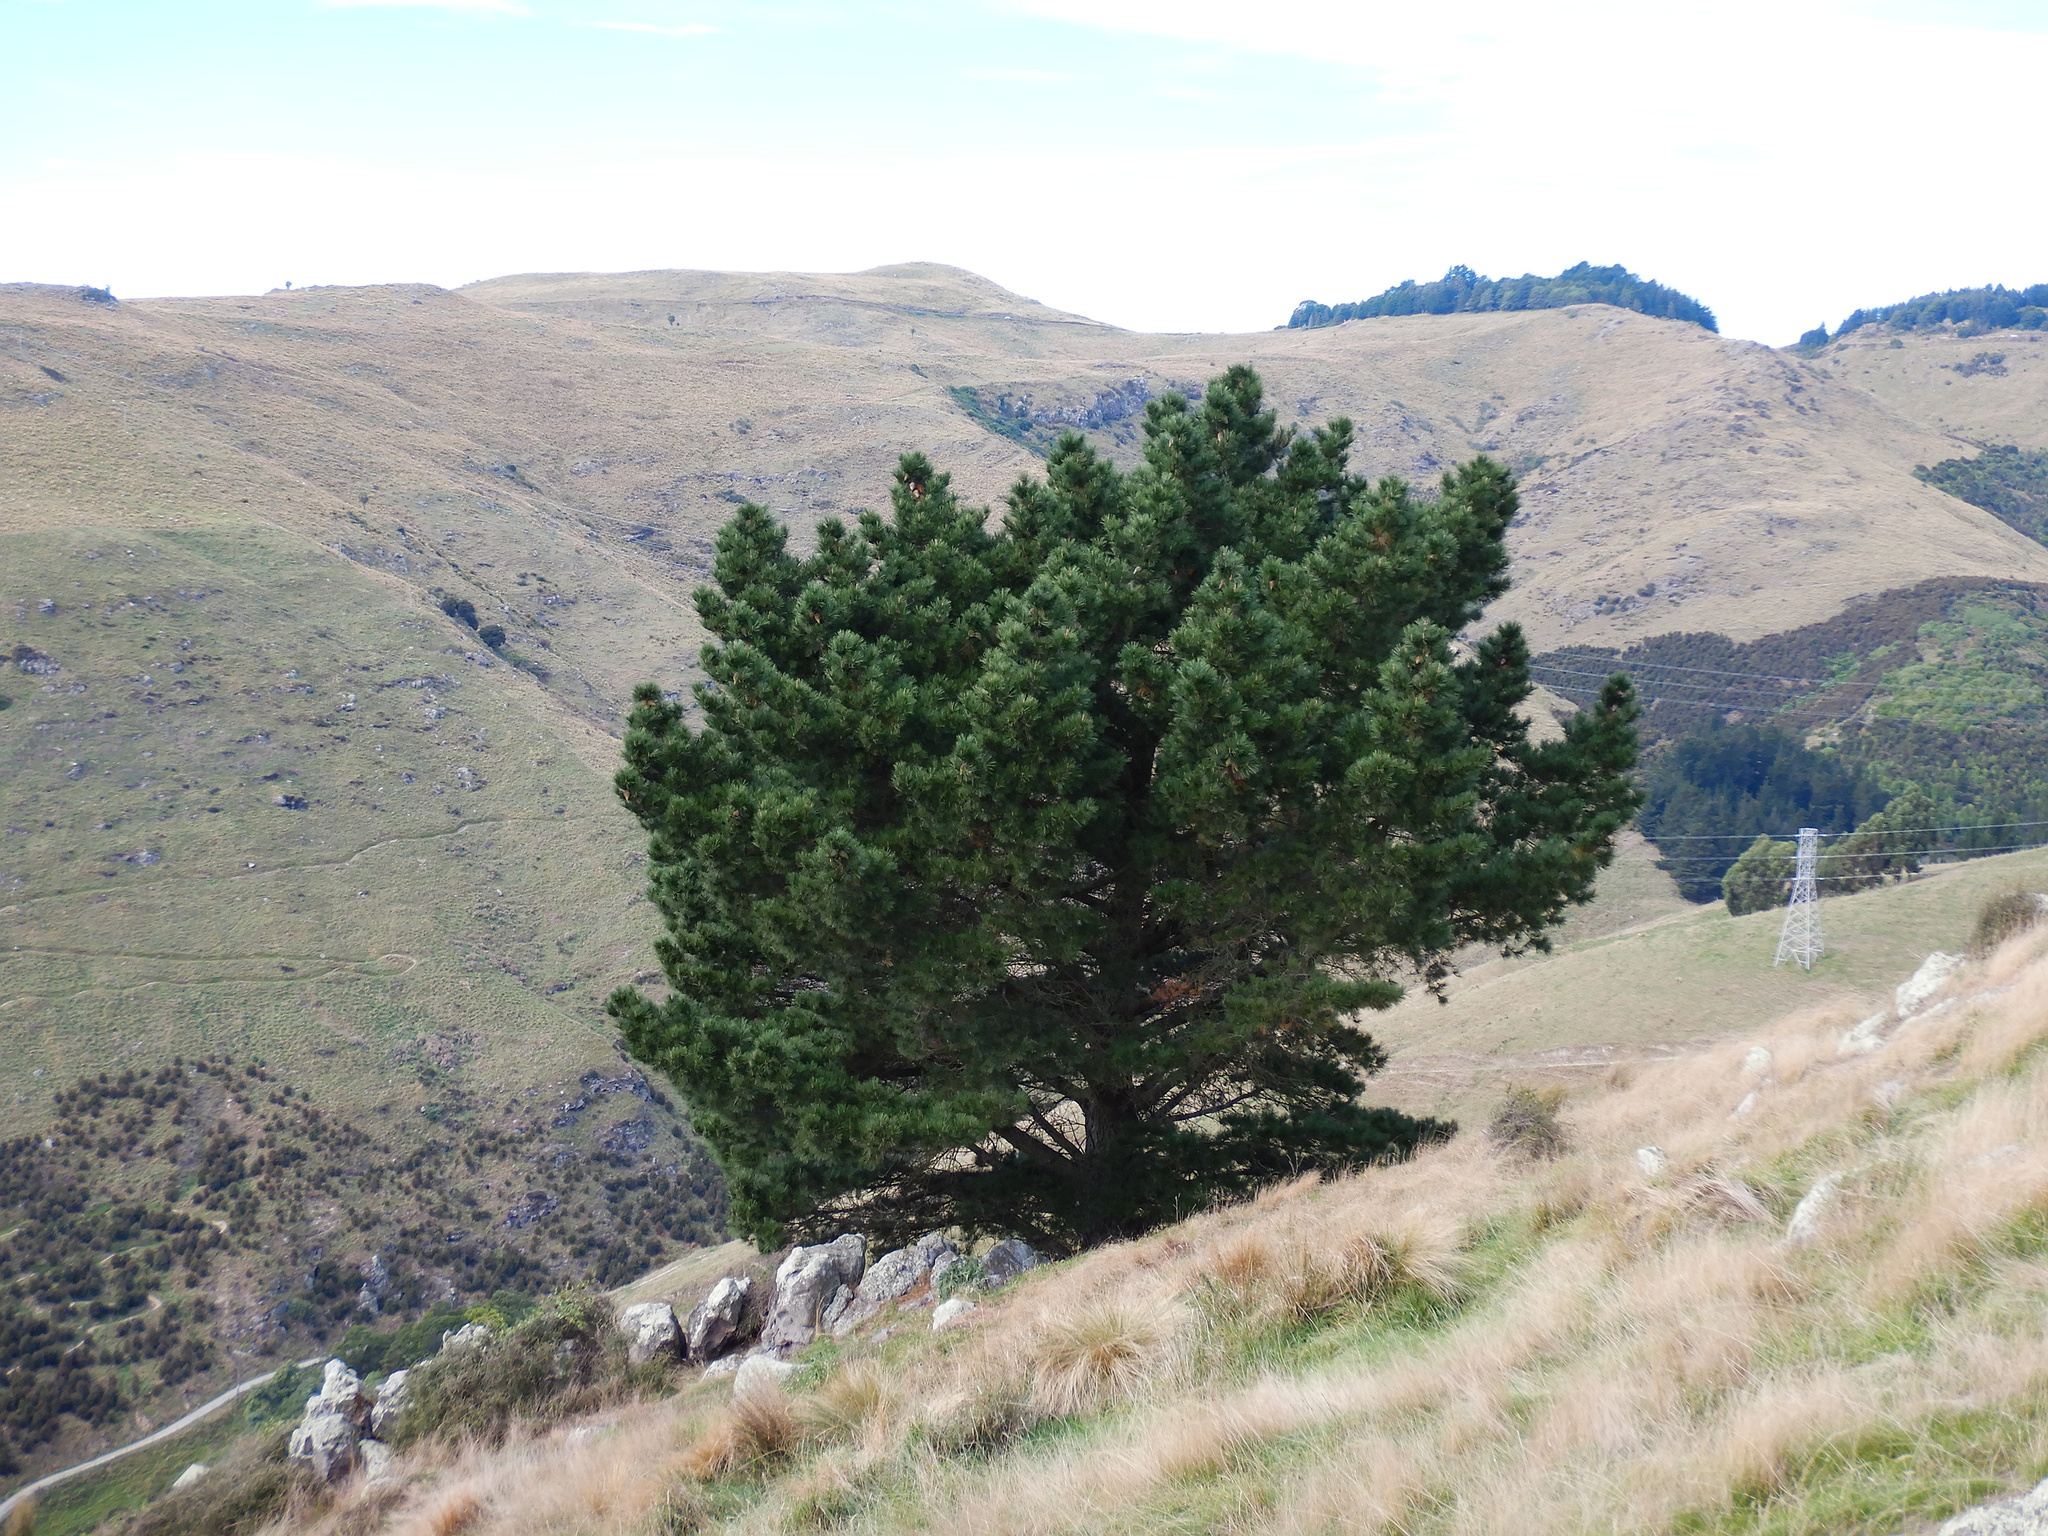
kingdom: Plantae
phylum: Tracheophyta
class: Pinopsida
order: Pinales
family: Pinaceae
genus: Pinus
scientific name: Pinus radiata
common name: Monterey pine
